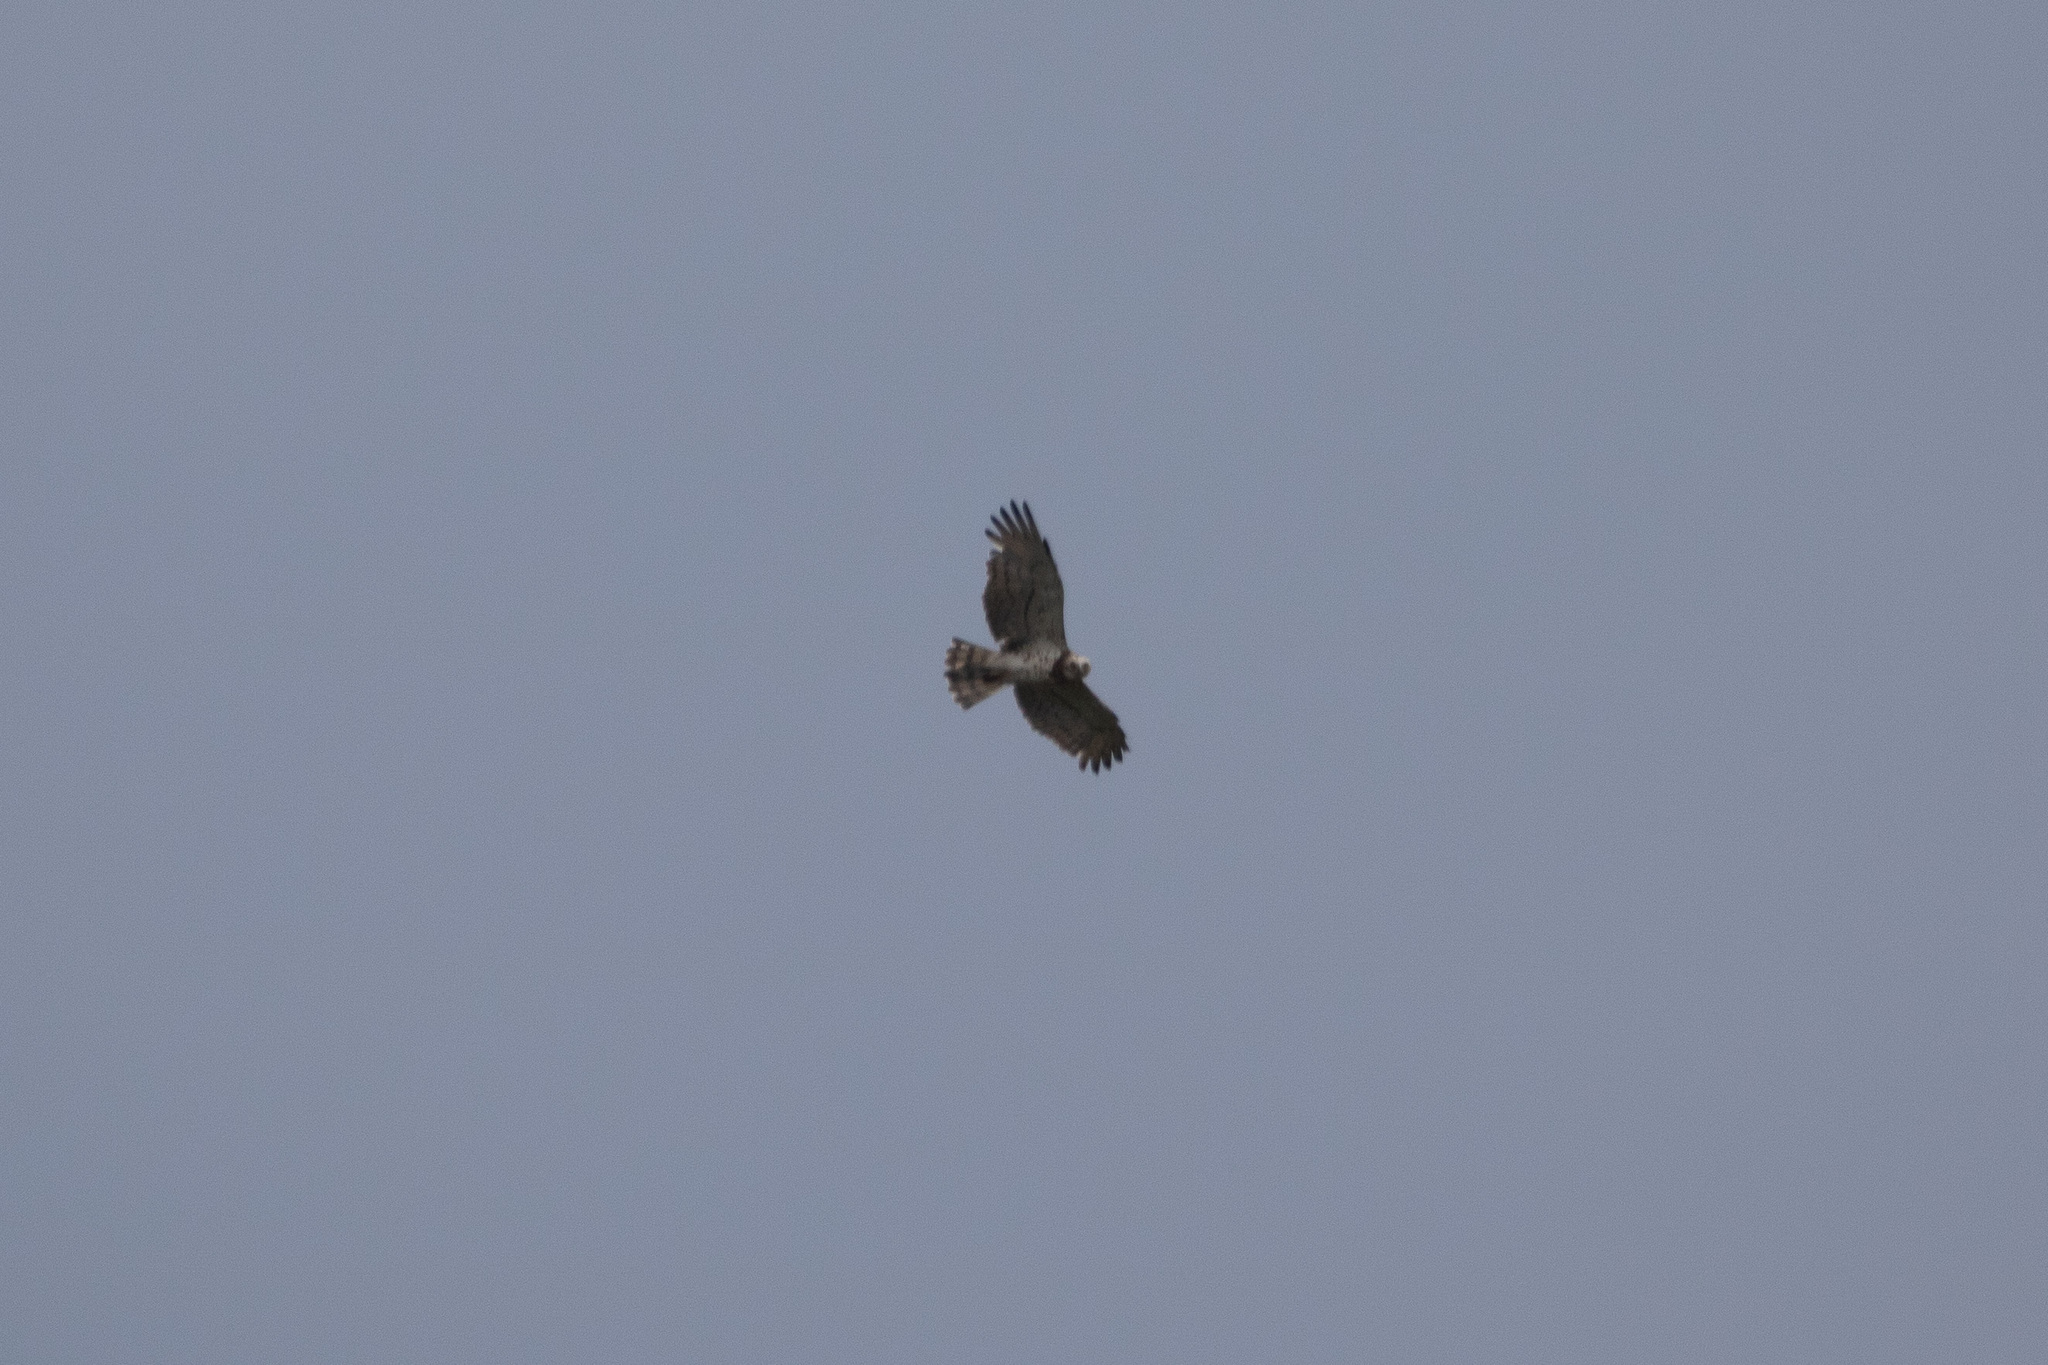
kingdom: Animalia
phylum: Chordata
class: Aves
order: Accipitriformes
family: Accipitridae
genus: Circaetus
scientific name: Circaetus gallicus
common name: Short-toed snake eagle
